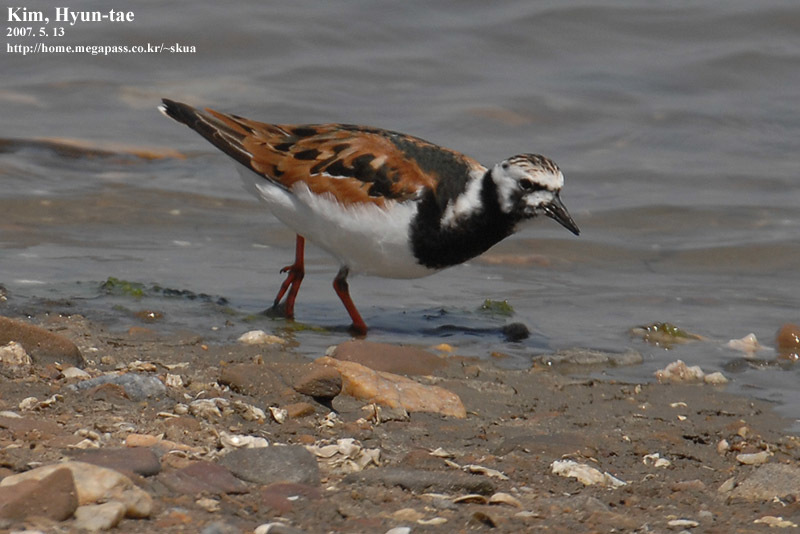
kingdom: Animalia
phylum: Chordata
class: Aves
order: Charadriiformes
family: Scolopacidae
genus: Arenaria
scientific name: Arenaria interpres
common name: Ruddy turnstone
